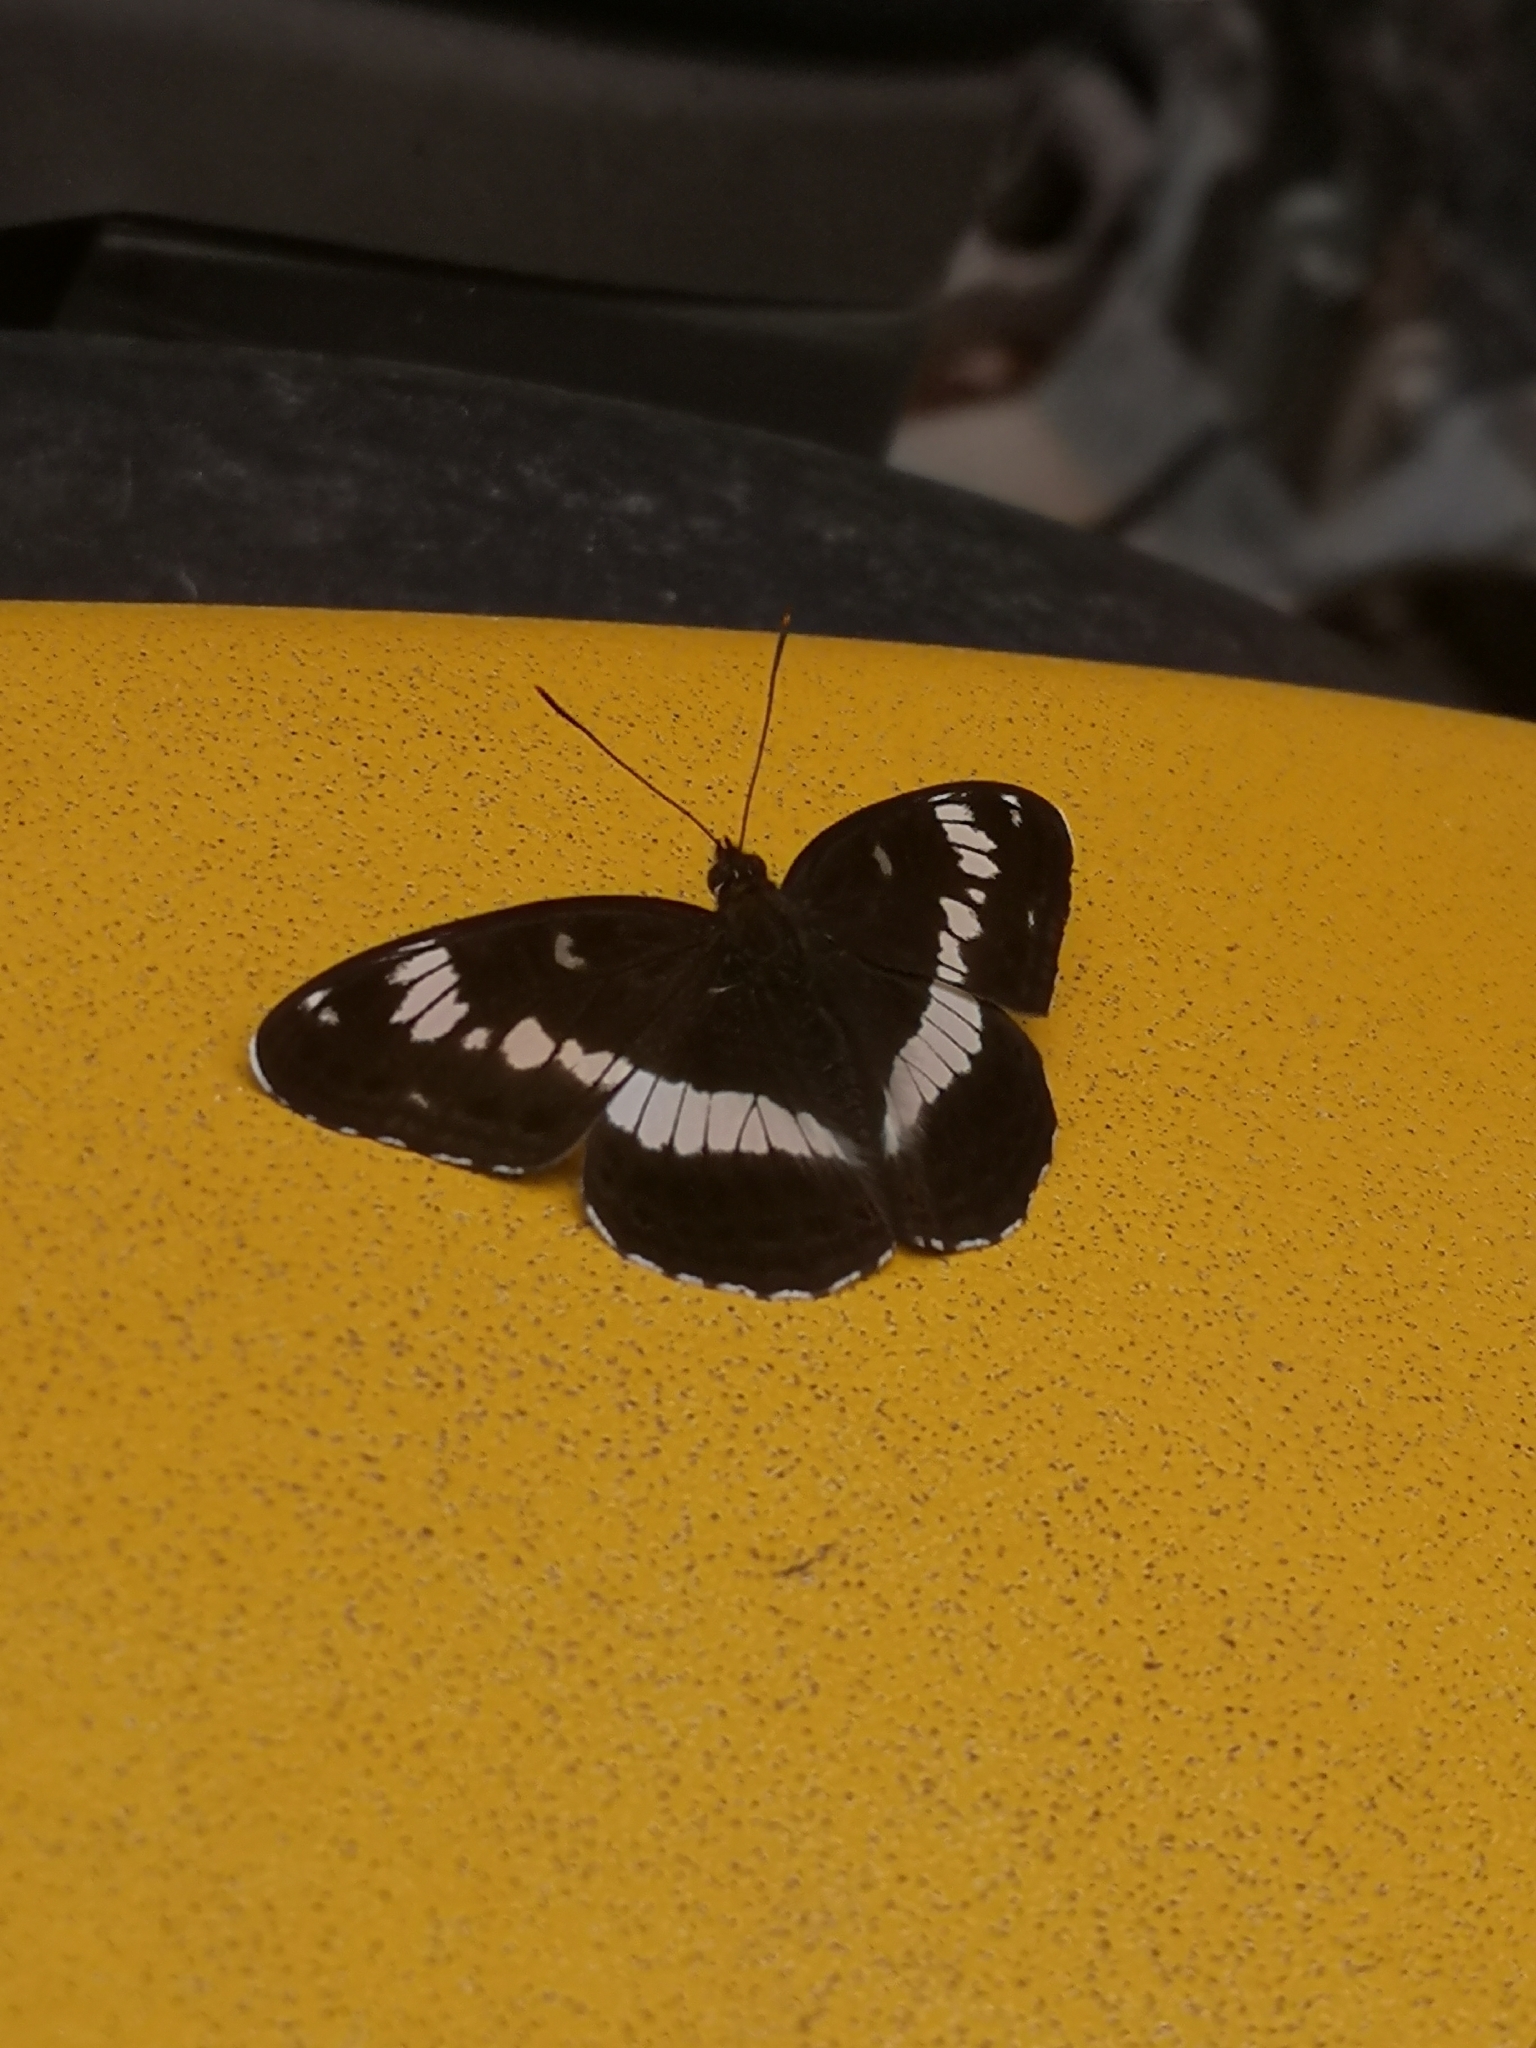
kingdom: Animalia
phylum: Arthropoda
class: Insecta
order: Lepidoptera
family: Nymphalidae
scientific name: Nymphalidae
